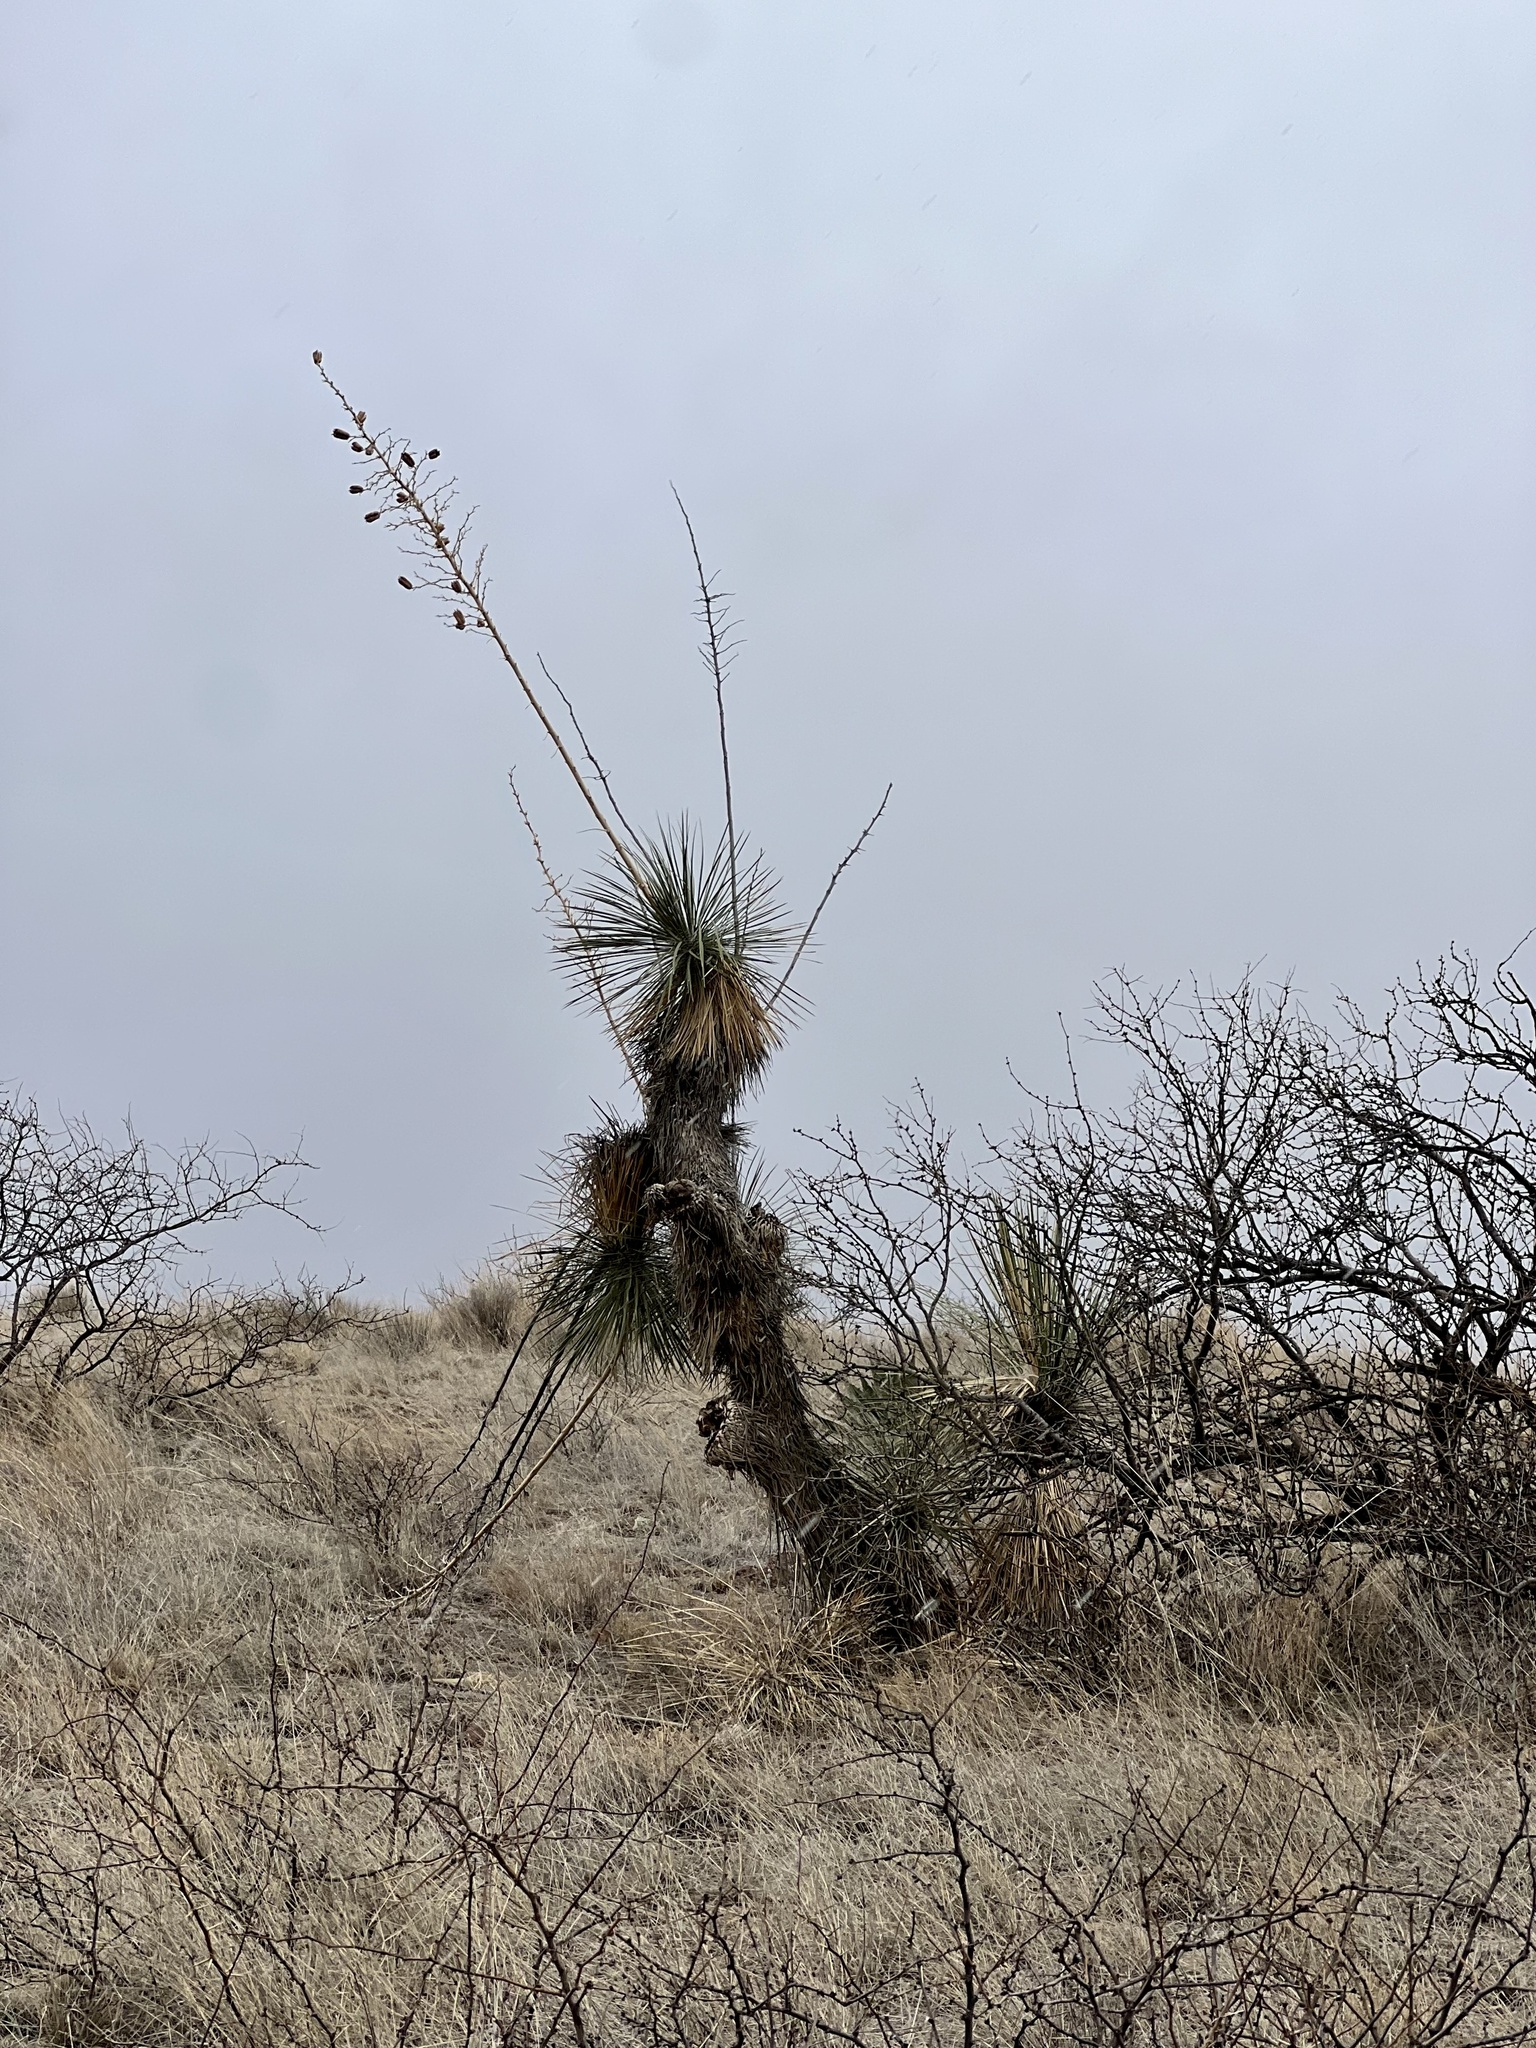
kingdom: Plantae
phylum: Tracheophyta
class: Liliopsida
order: Asparagales
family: Asparagaceae
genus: Yucca
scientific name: Yucca elata
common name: Palmella
